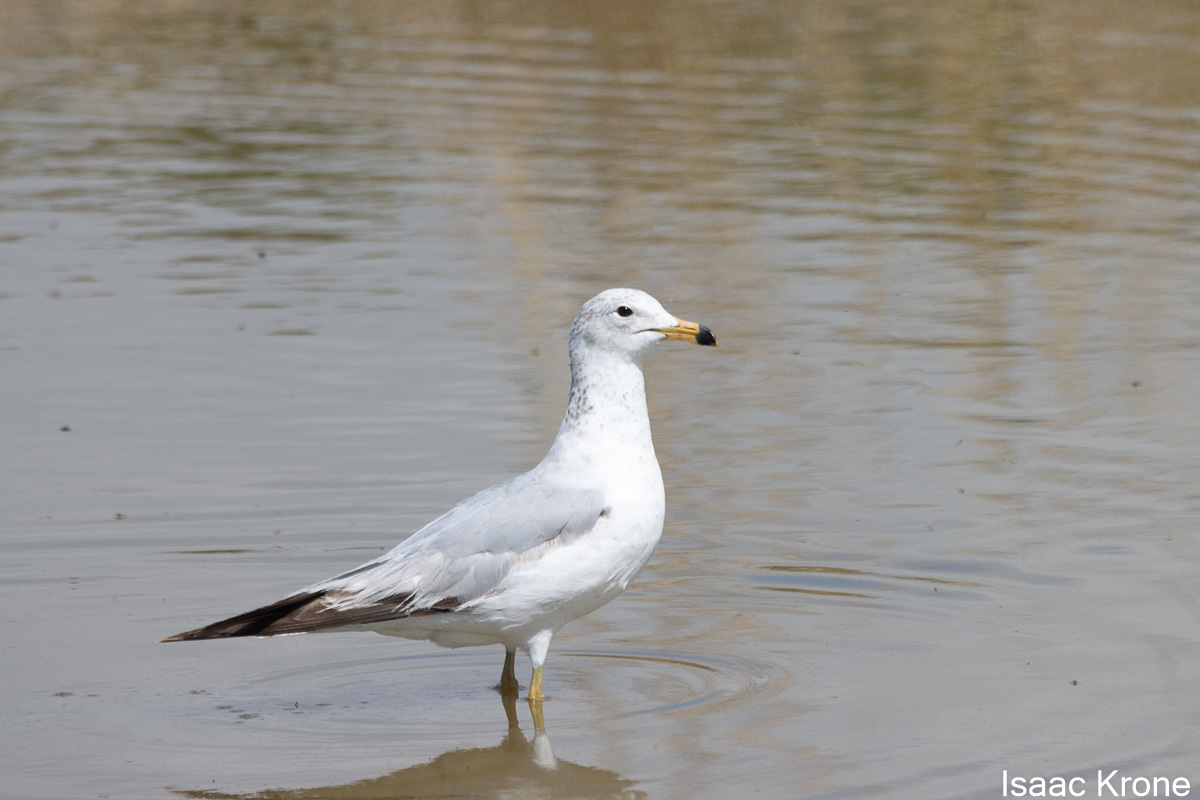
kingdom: Animalia
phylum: Chordata
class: Aves
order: Charadriiformes
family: Laridae
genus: Larus
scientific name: Larus delawarensis
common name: Ring-billed gull
